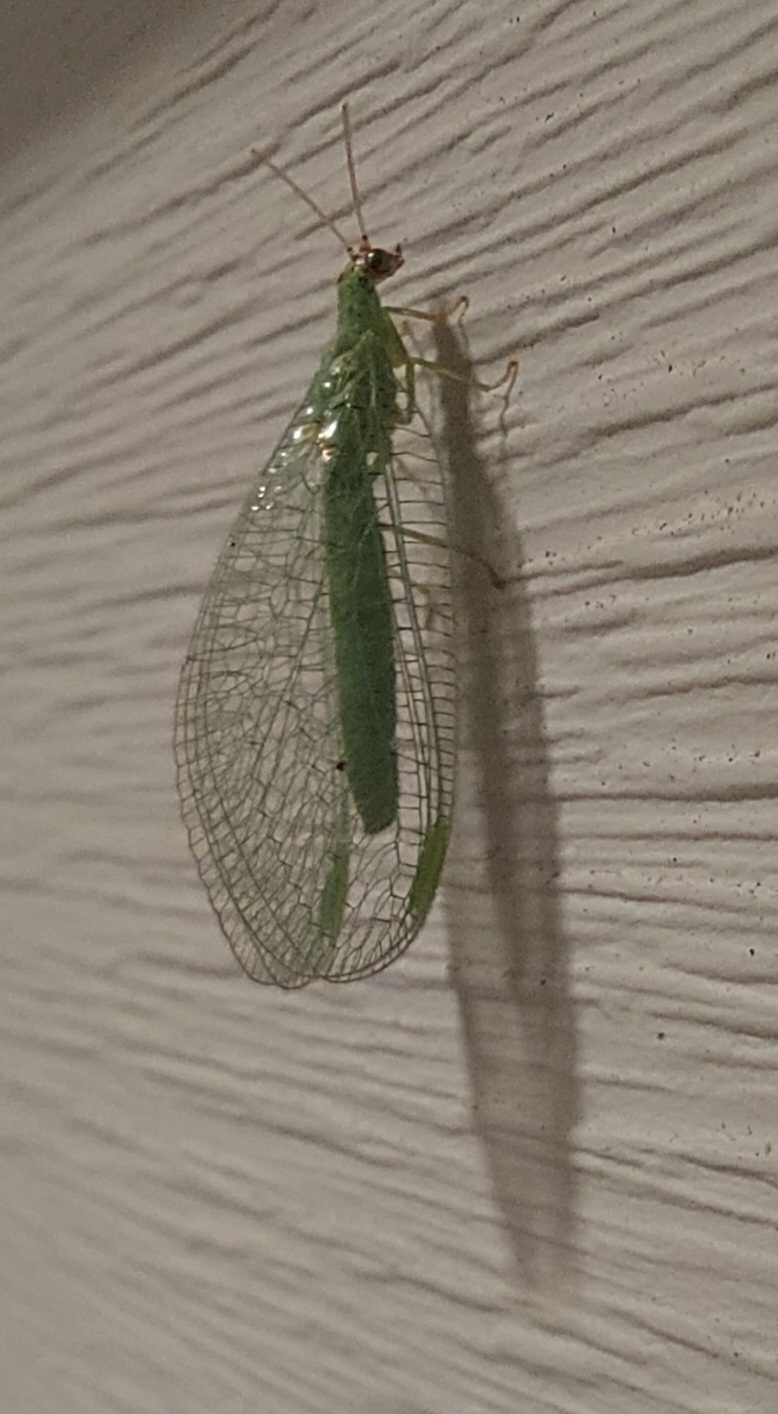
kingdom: Animalia
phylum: Arthropoda
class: Insecta
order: Neuroptera
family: Chrysopidae
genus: Chrysopa
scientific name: Chrysopa oculata
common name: Golden-eyed lacewing
